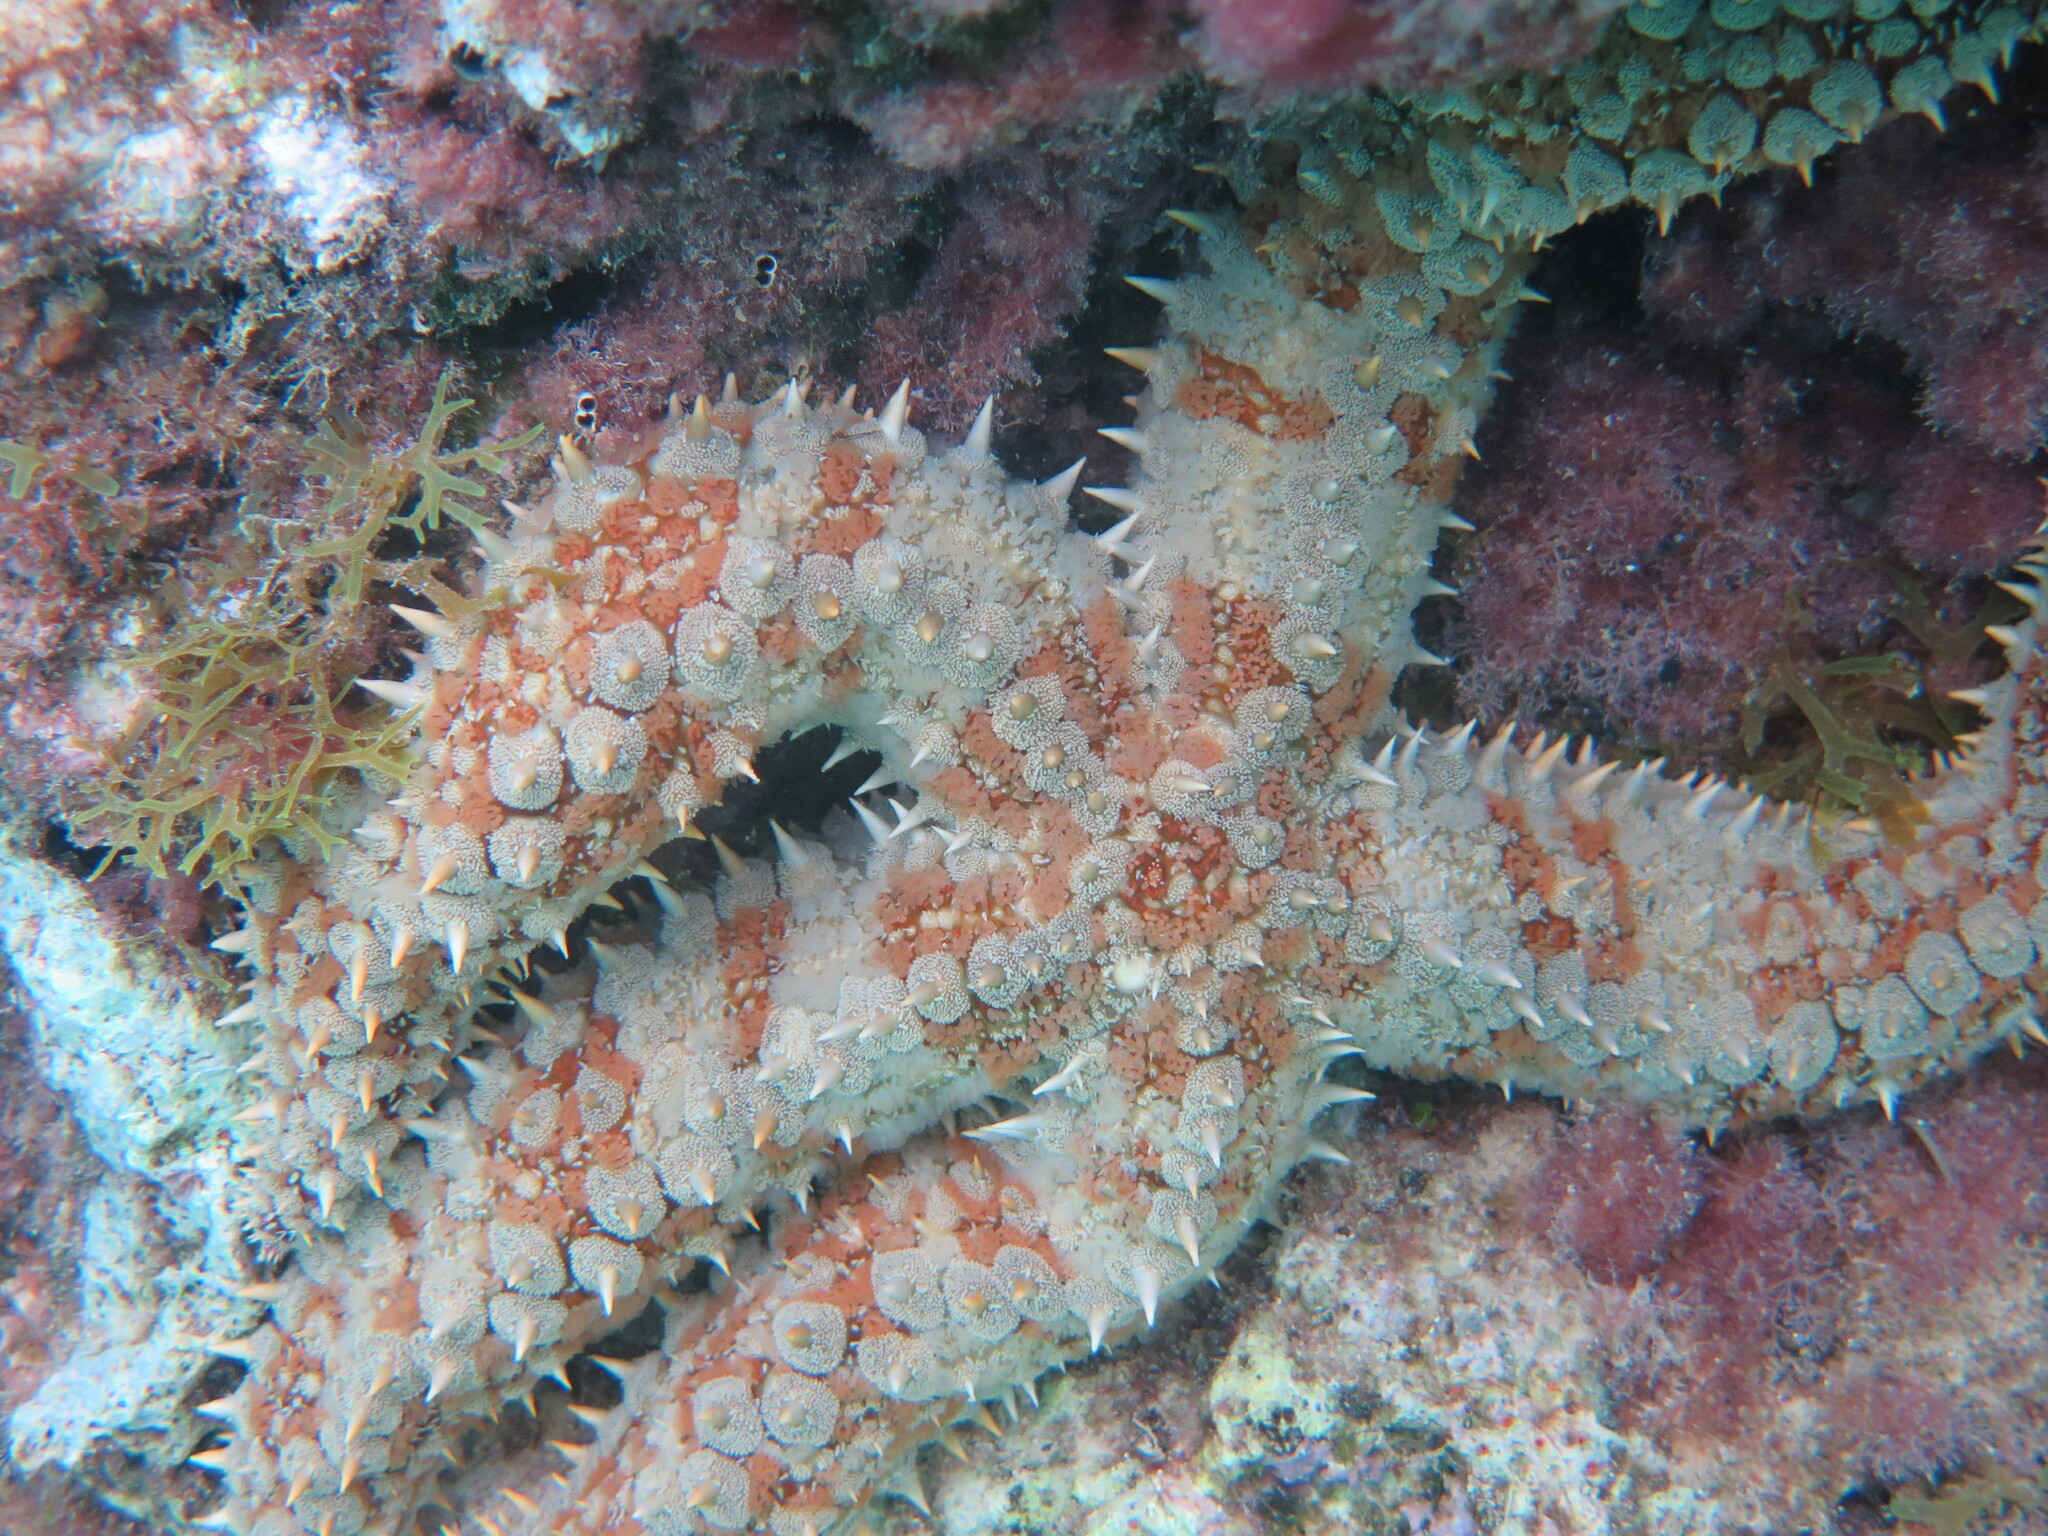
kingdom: Animalia
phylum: Echinodermata
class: Asteroidea
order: Forcipulatida
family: Asteriidae
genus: Marthasterias
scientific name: Marthasterias glacialis
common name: Spiny starfish
